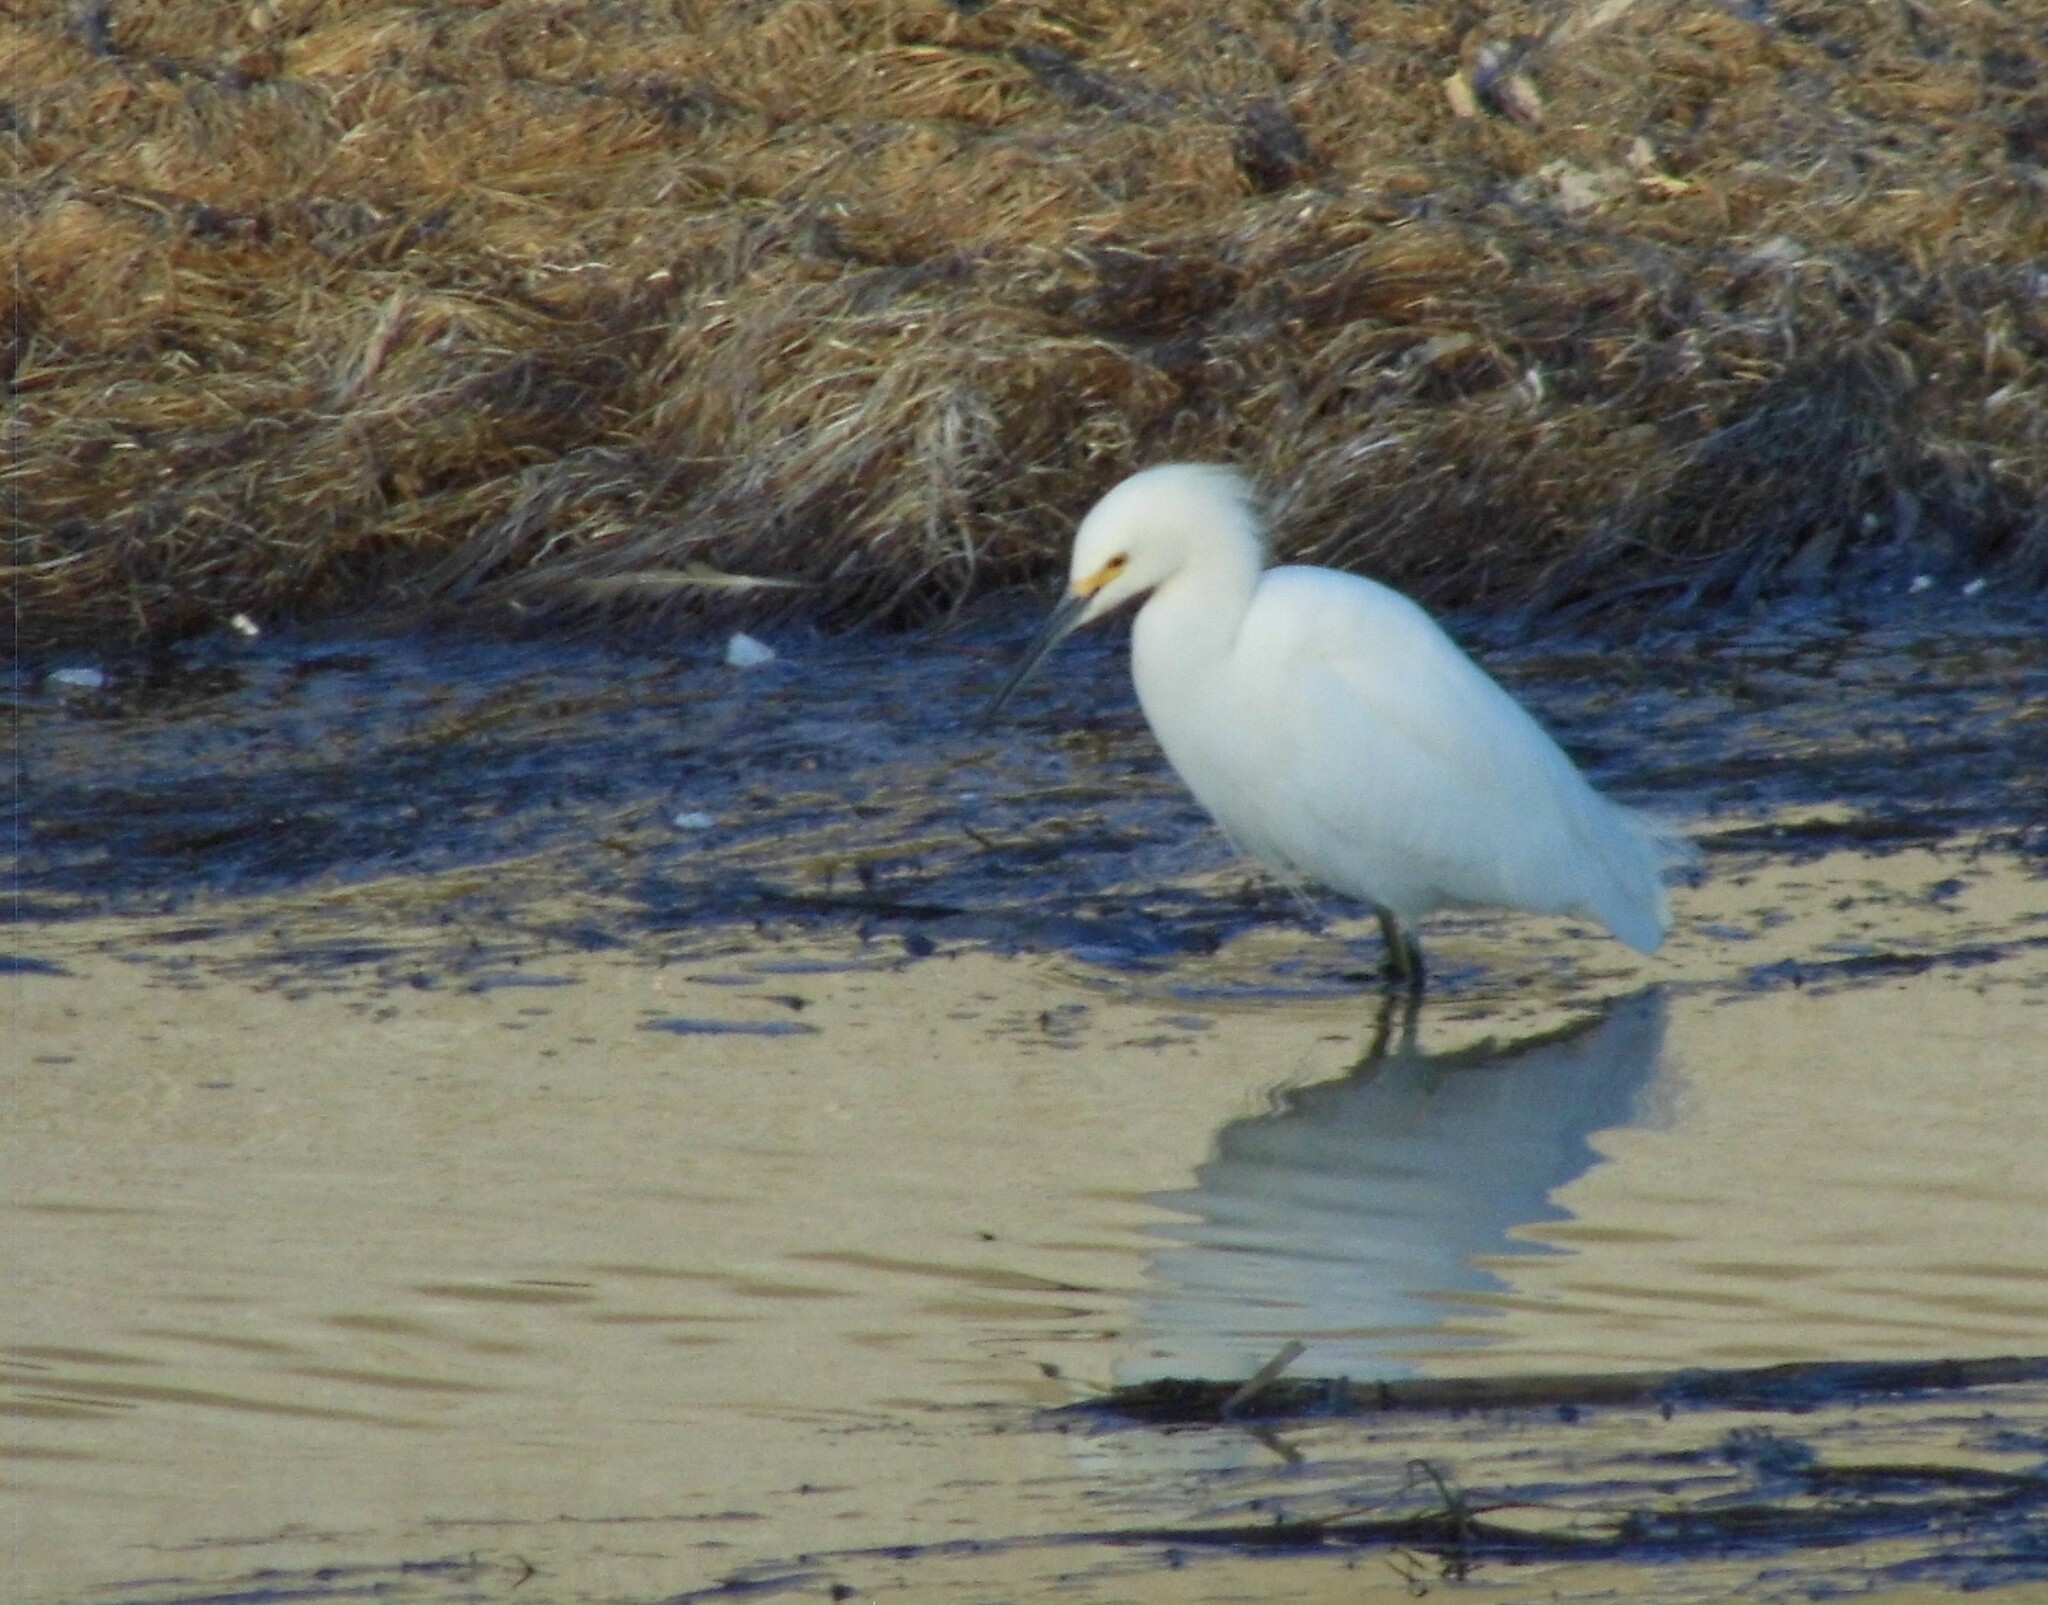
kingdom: Animalia
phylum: Chordata
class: Aves
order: Pelecaniformes
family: Ardeidae
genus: Egretta
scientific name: Egretta thula
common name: Snowy egret
